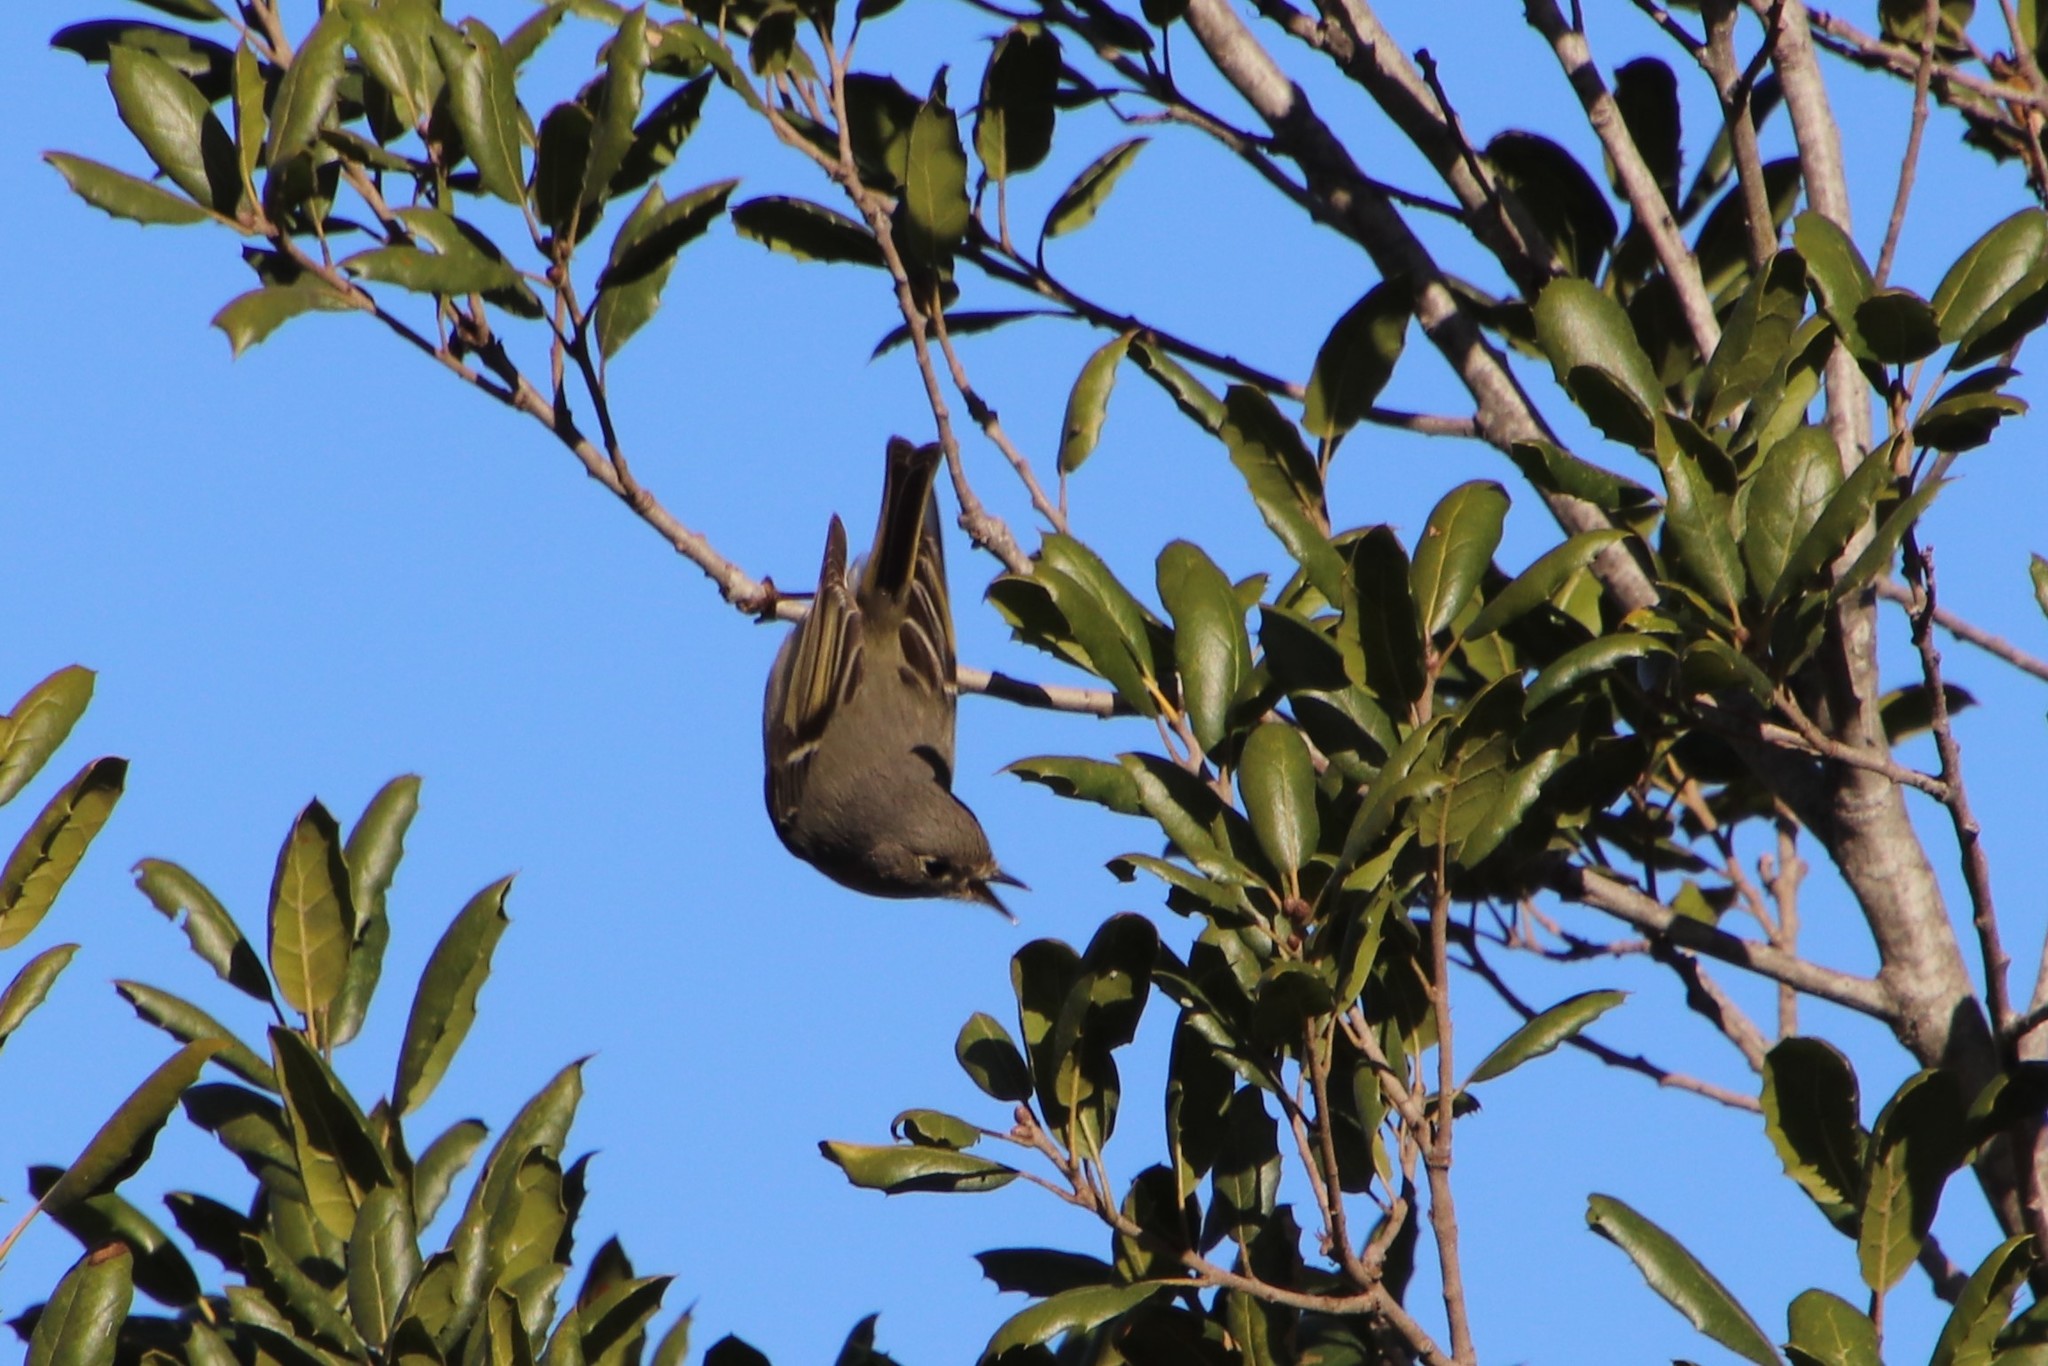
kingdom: Animalia
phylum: Chordata
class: Aves
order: Passeriformes
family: Regulidae
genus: Regulus
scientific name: Regulus calendula
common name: Ruby-crowned kinglet
